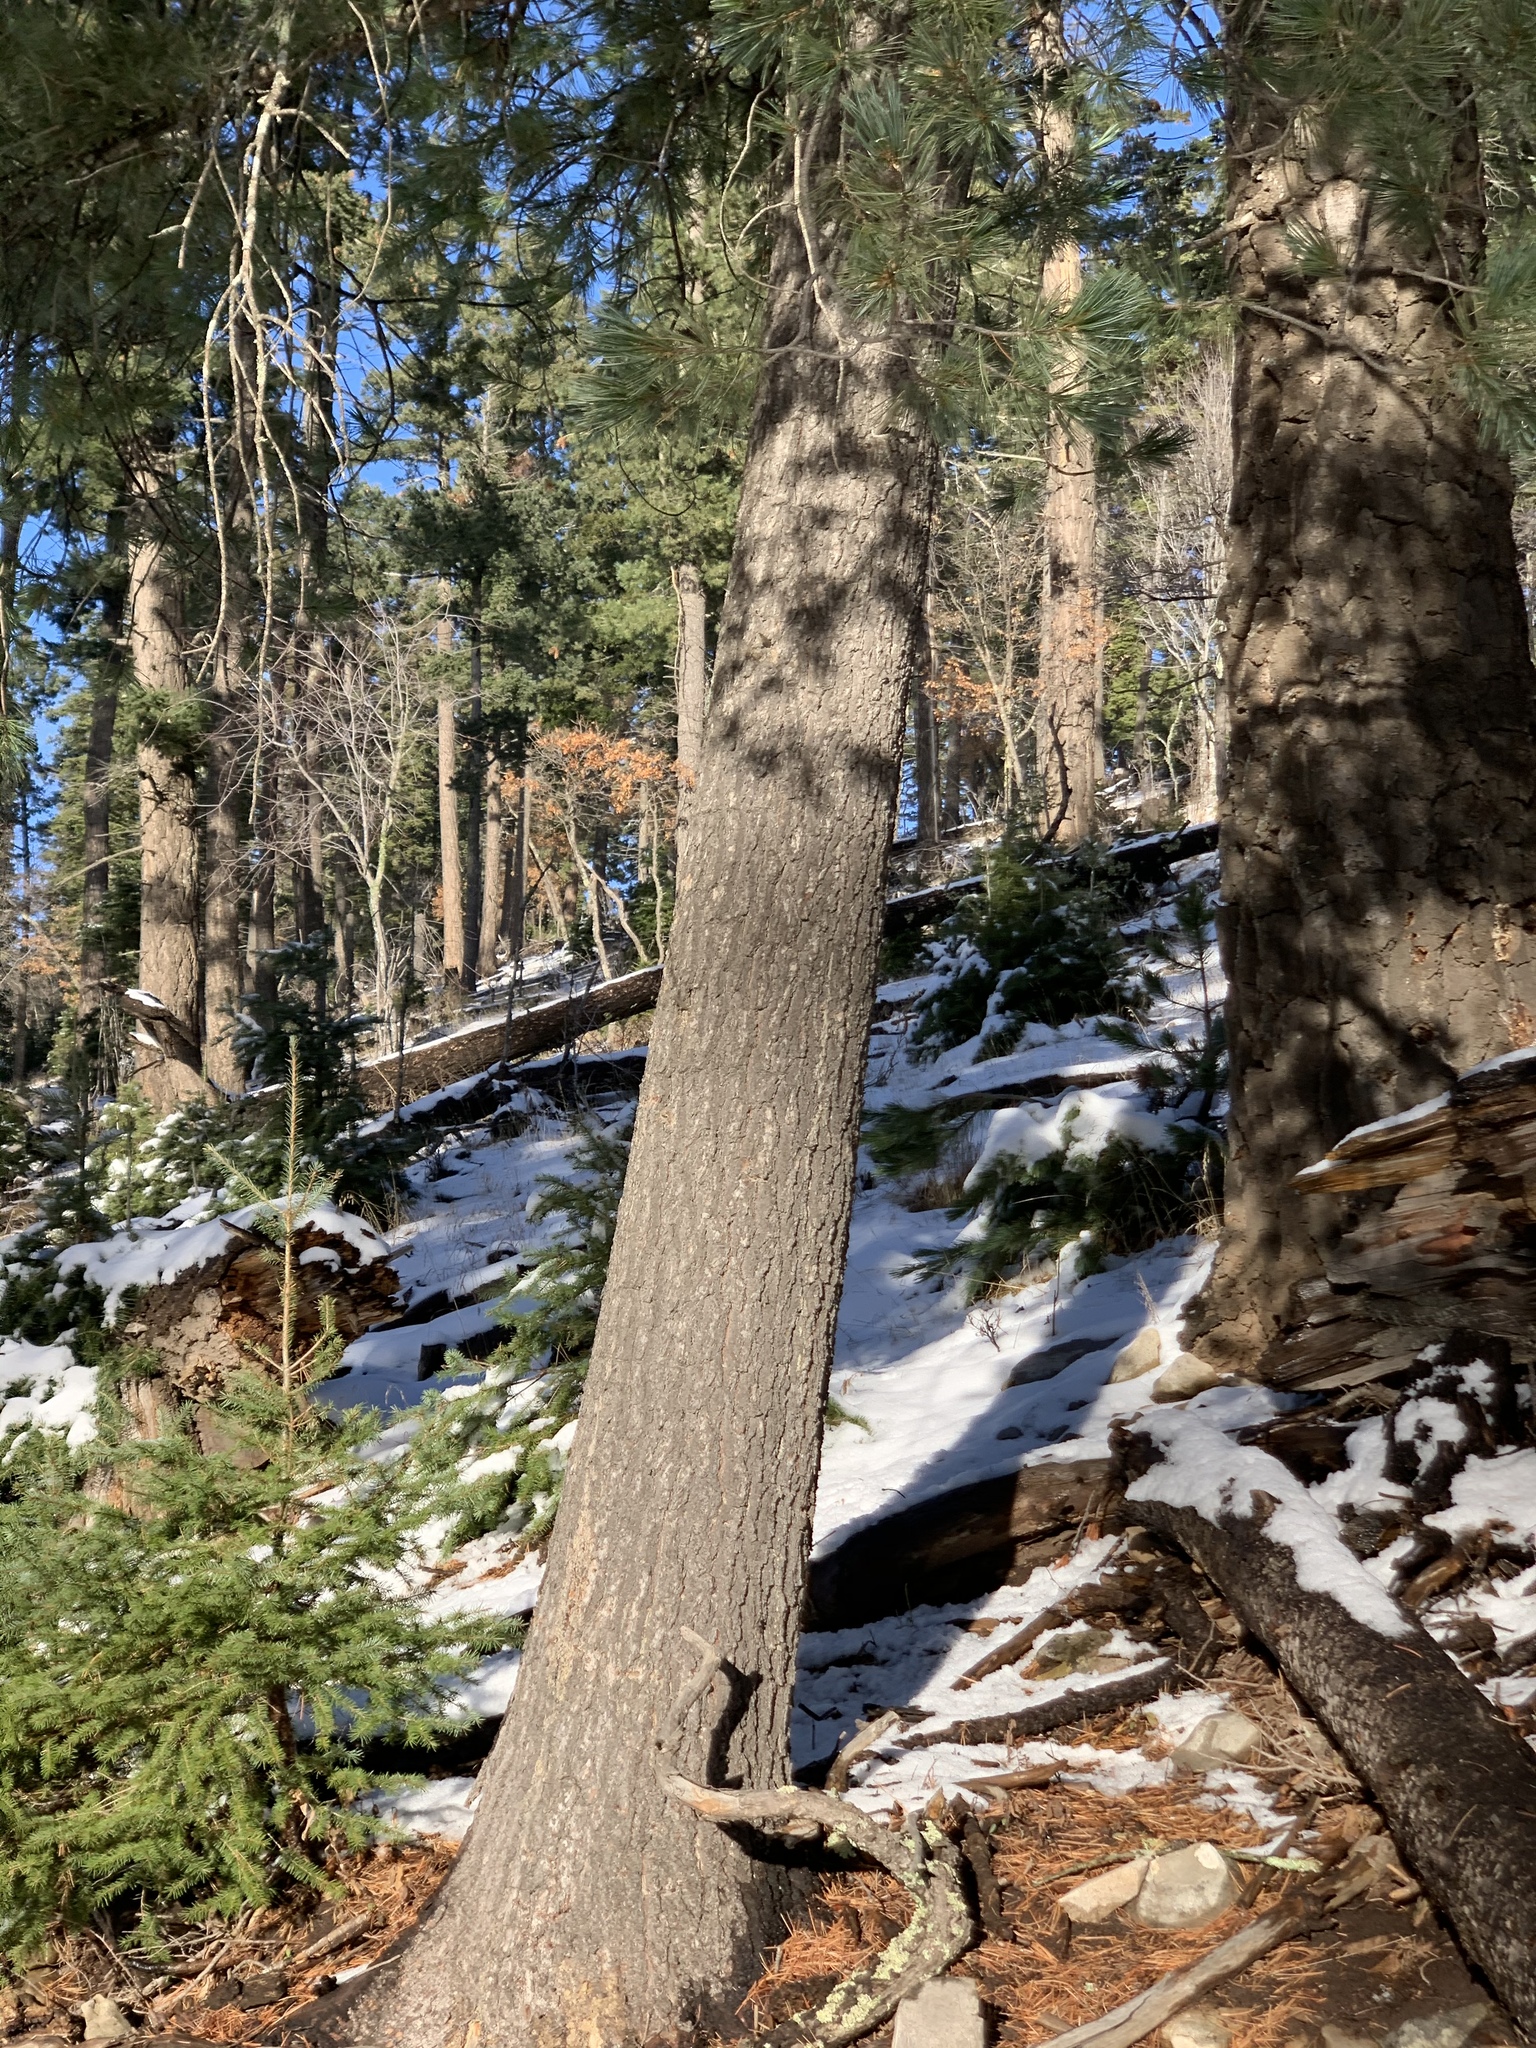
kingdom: Plantae
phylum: Tracheophyta
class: Pinopsida
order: Pinales
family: Pinaceae
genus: Pinus
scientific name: Pinus strobiformis
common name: Southwestern white pine
